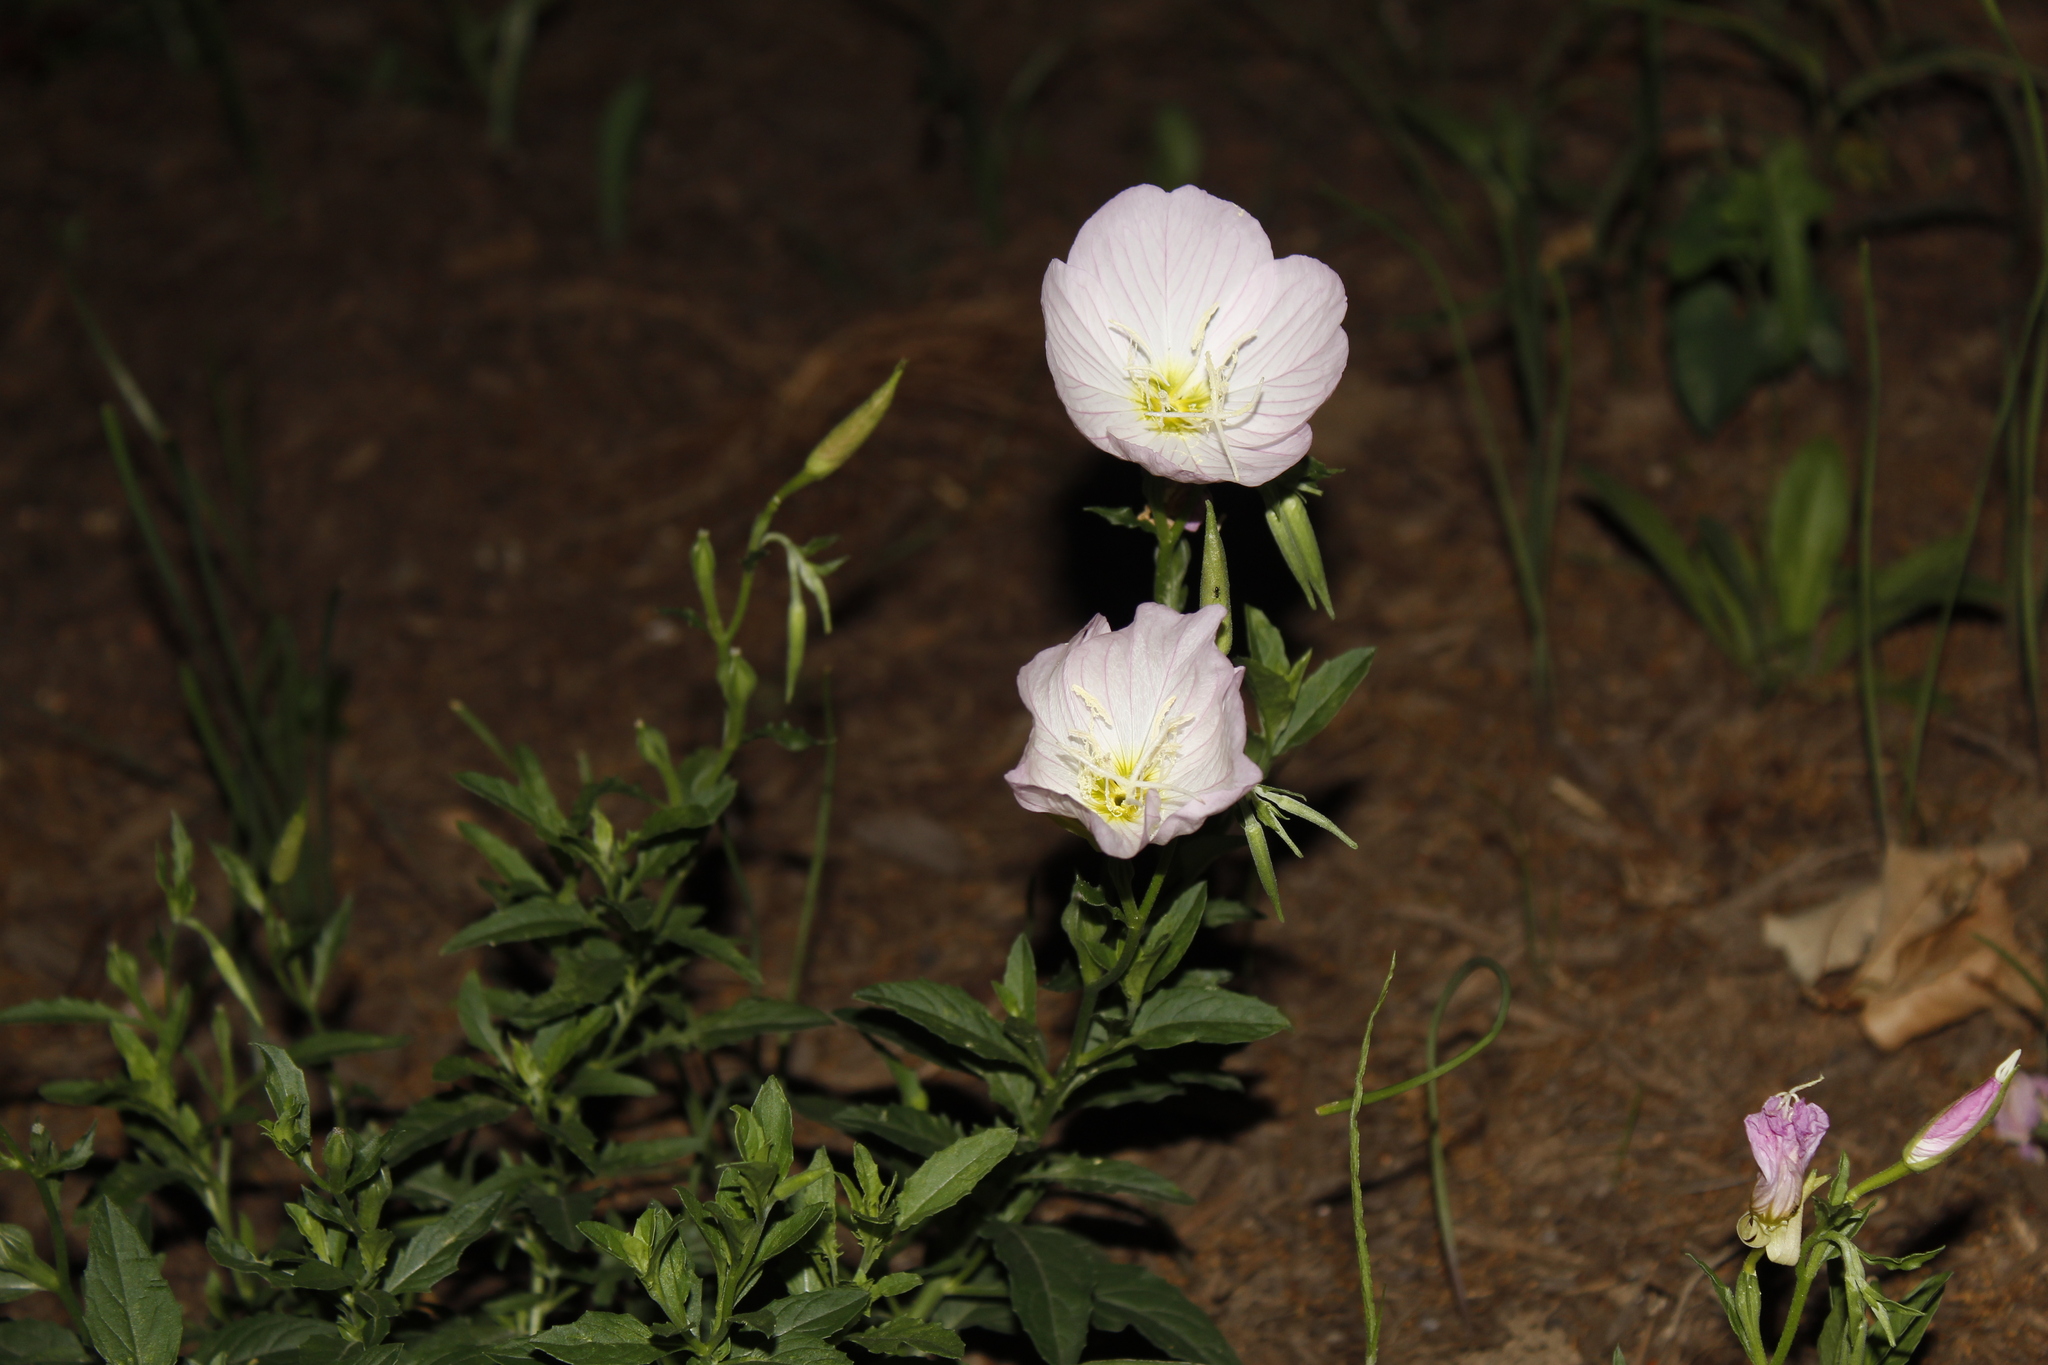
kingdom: Plantae
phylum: Tracheophyta
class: Magnoliopsida
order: Myrtales
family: Onagraceae
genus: Oenothera
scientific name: Oenothera speciosa
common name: White evening-primrose
